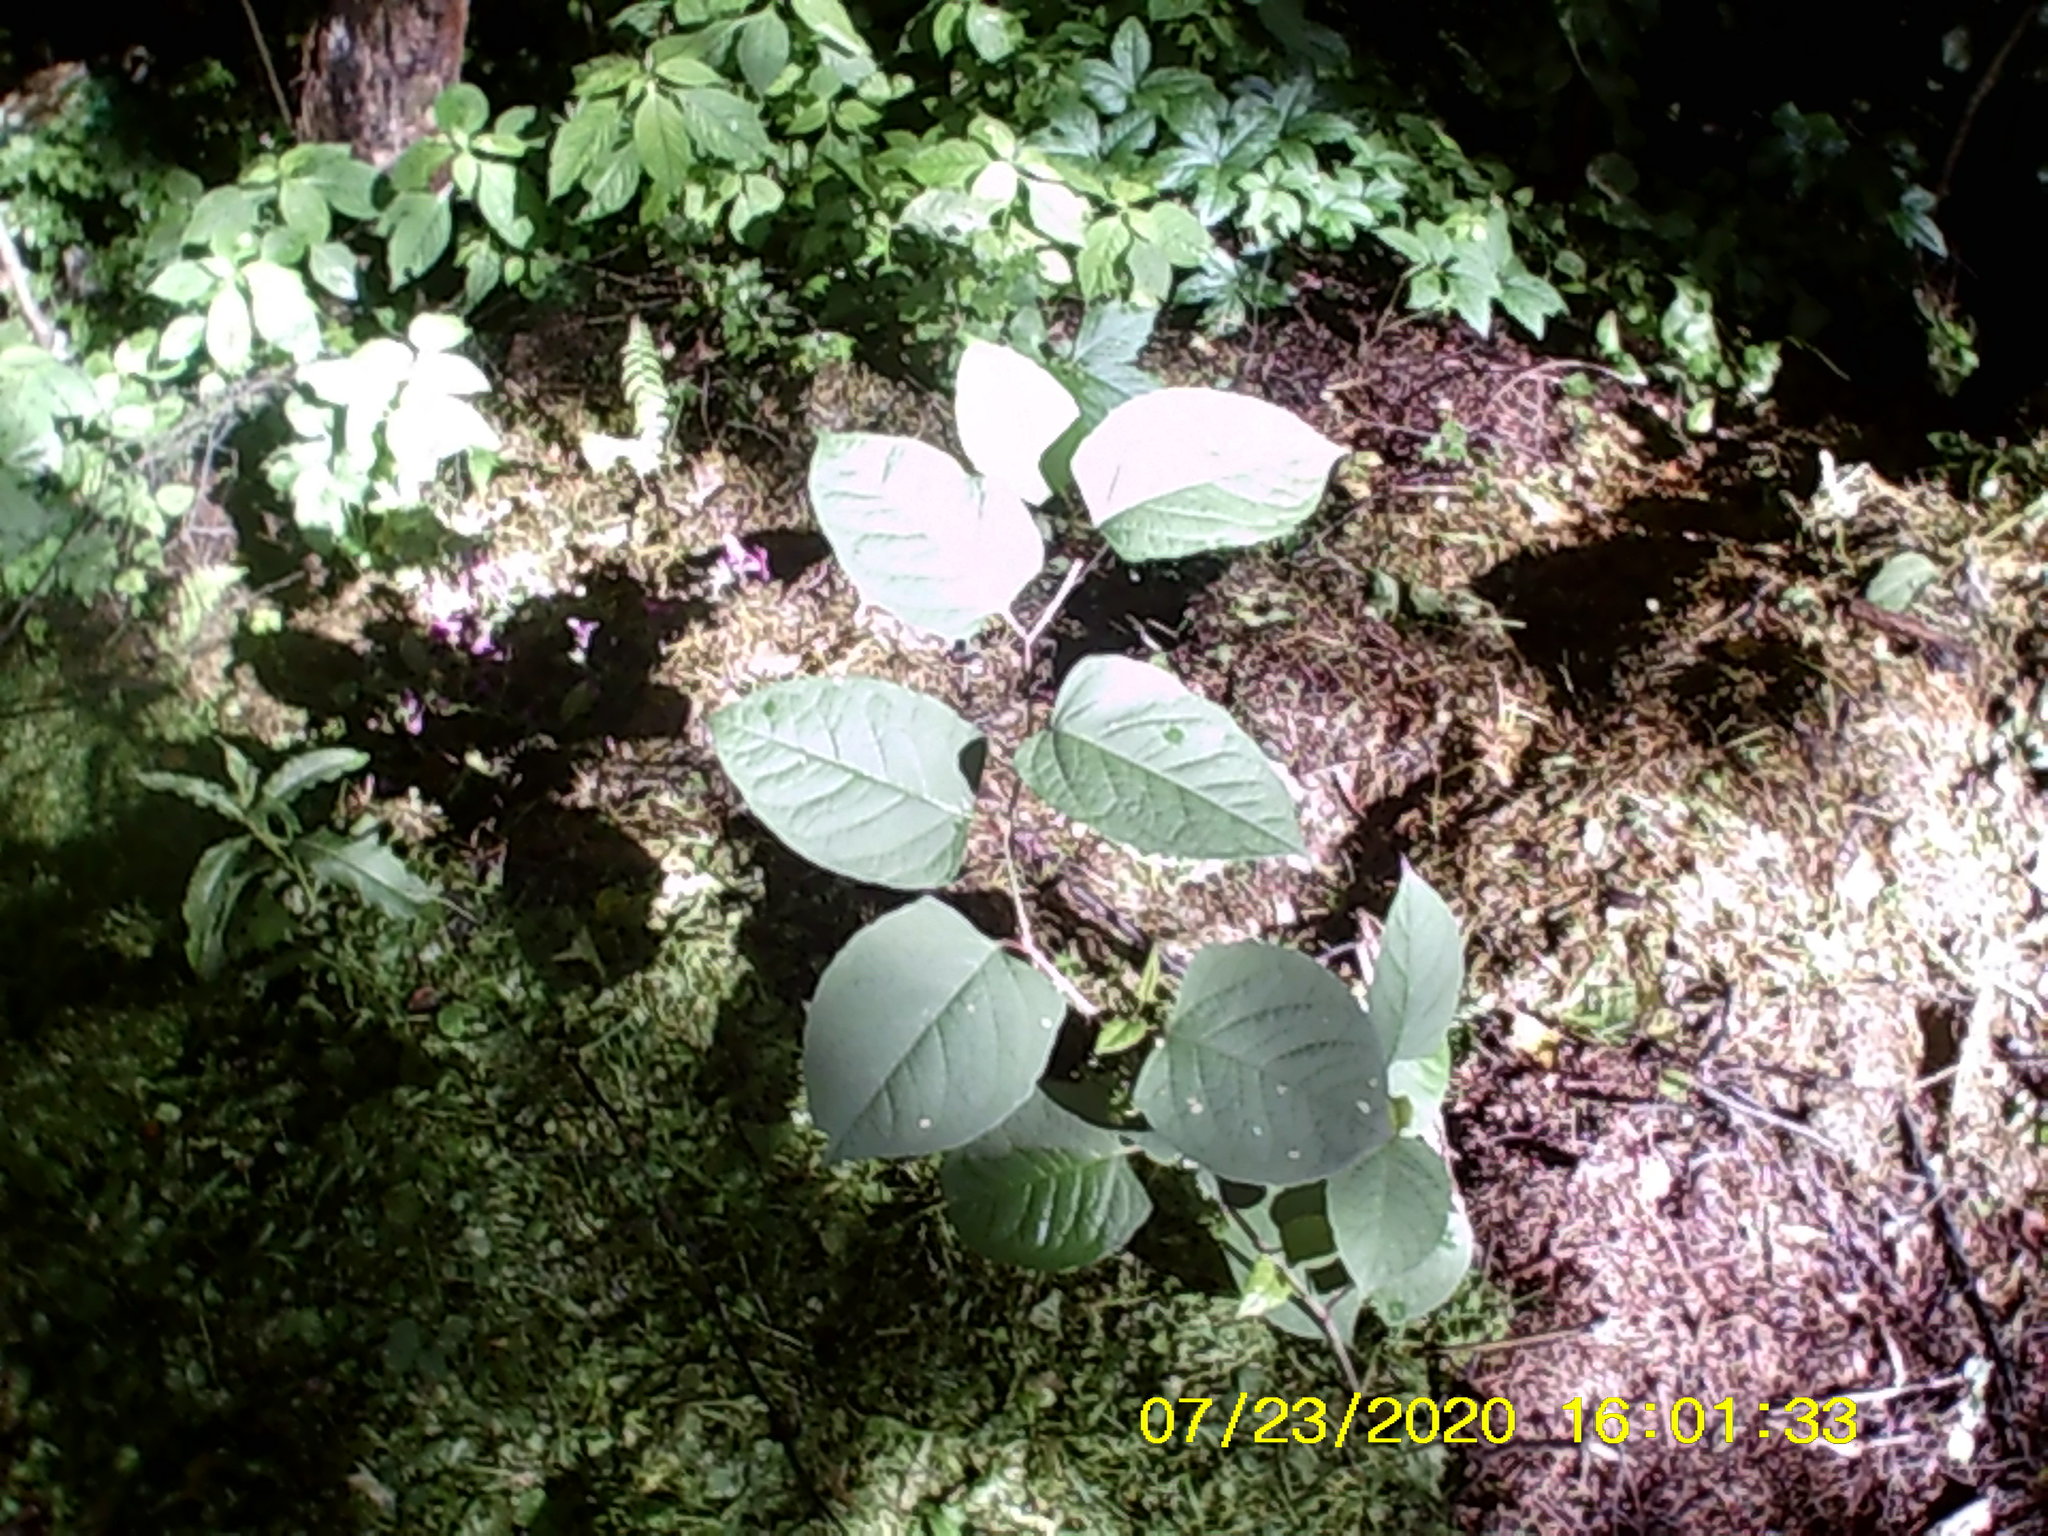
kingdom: Plantae
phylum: Tracheophyta
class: Magnoliopsida
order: Caryophyllales
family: Polygonaceae
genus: Reynoutria
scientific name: Reynoutria bohemica
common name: Bohemian knotweed
